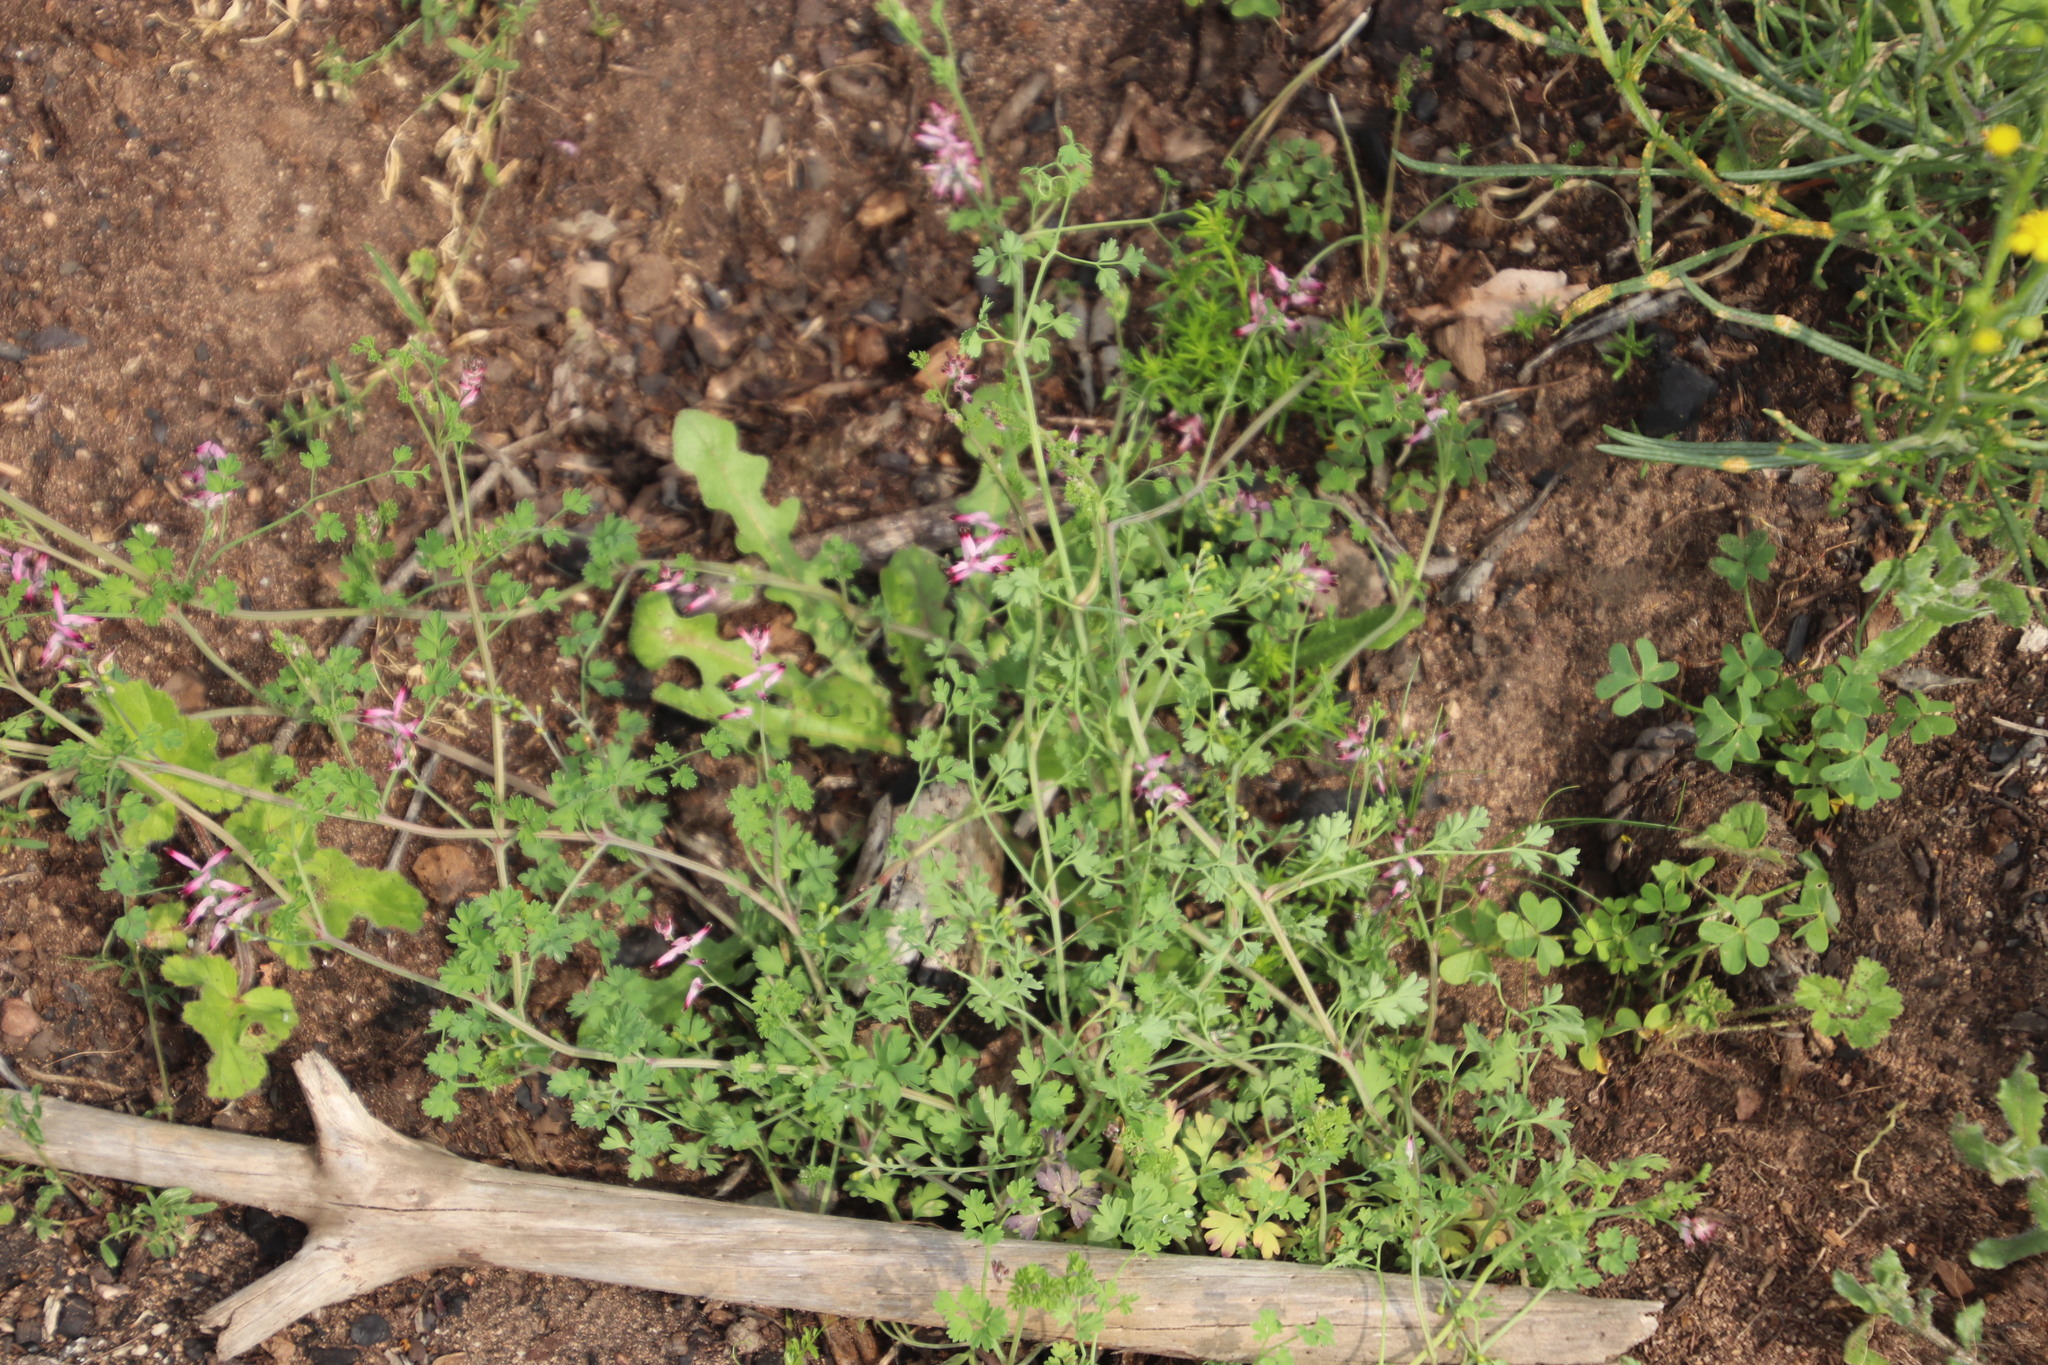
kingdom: Plantae
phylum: Tracheophyta
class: Magnoliopsida
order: Ranunculales
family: Papaveraceae
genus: Fumaria
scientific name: Fumaria muralis
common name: Common ramping-fumitory
